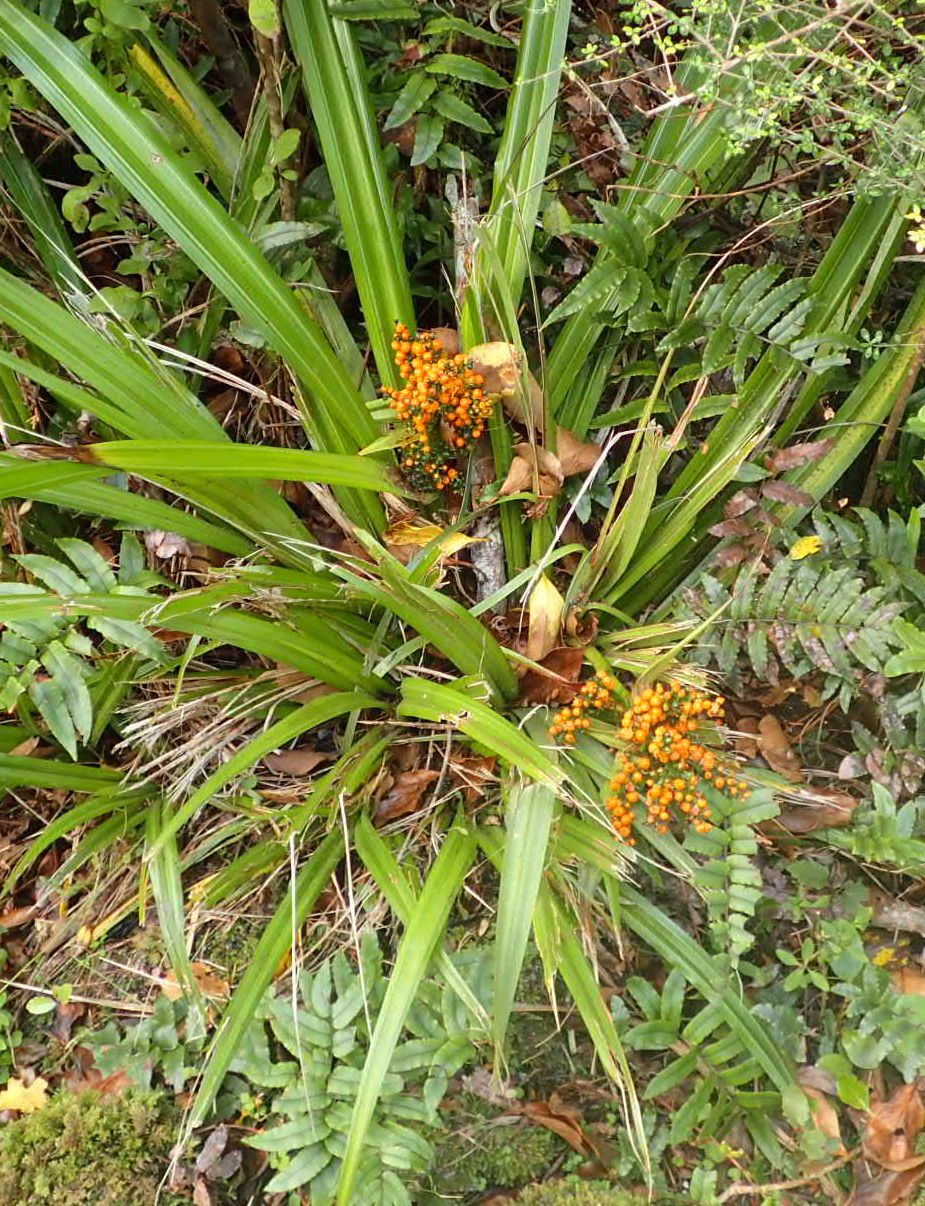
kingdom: Plantae
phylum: Tracheophyta
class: Liliopsida
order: Asparagales
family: Asteliaceae
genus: Astelia
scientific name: Astelia fragrans
